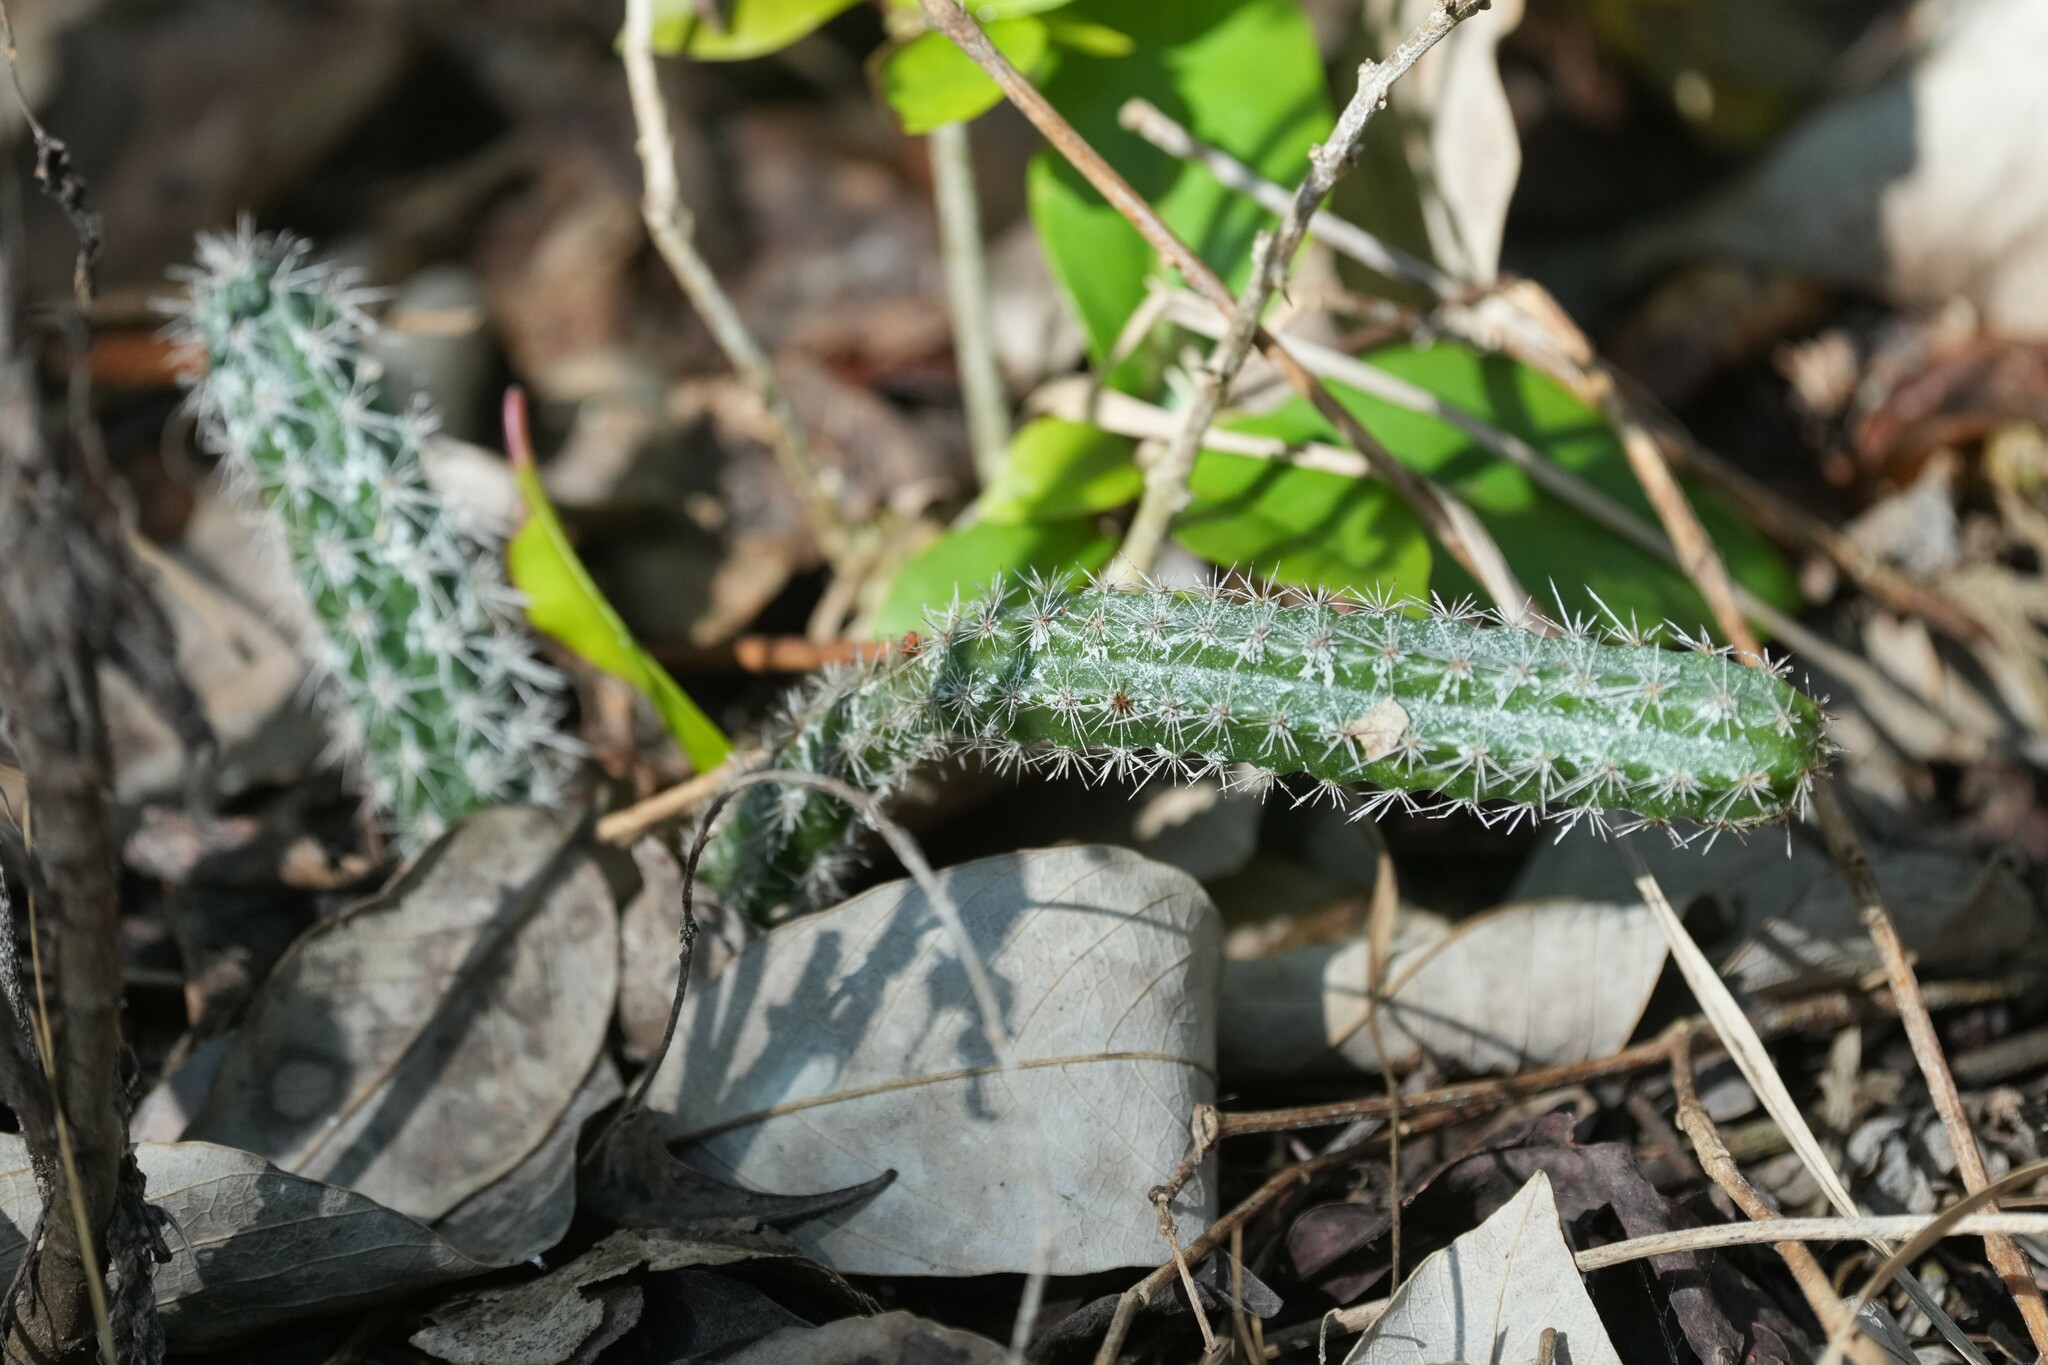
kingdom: Plantae
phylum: Tracheophyta
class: Magnoliopsida
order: Caryophyllales
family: Cactaceae
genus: Acanthocereus
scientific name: Acanthocereus tetragonus
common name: Triangle cactus
